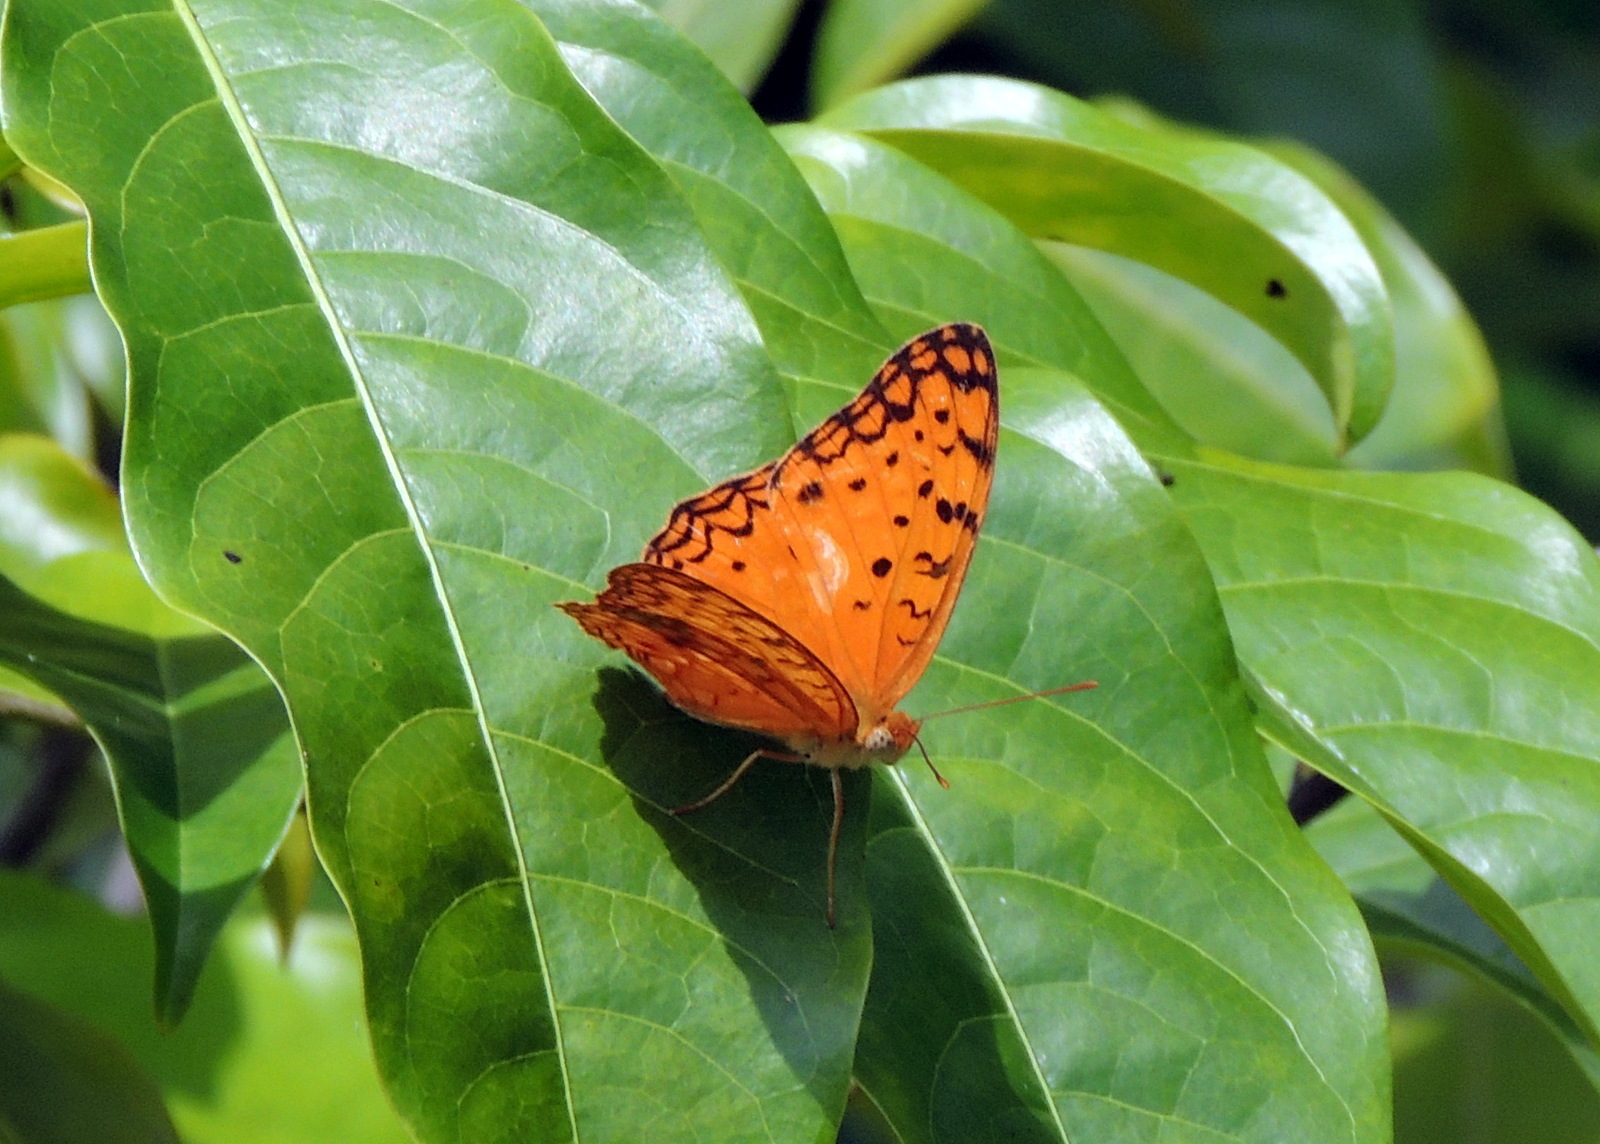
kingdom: Animalia
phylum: Arthropoda
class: Insecta
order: Lepidoptera
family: Nymphalidae
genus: Phalanta
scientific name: Phalanta phalantha
